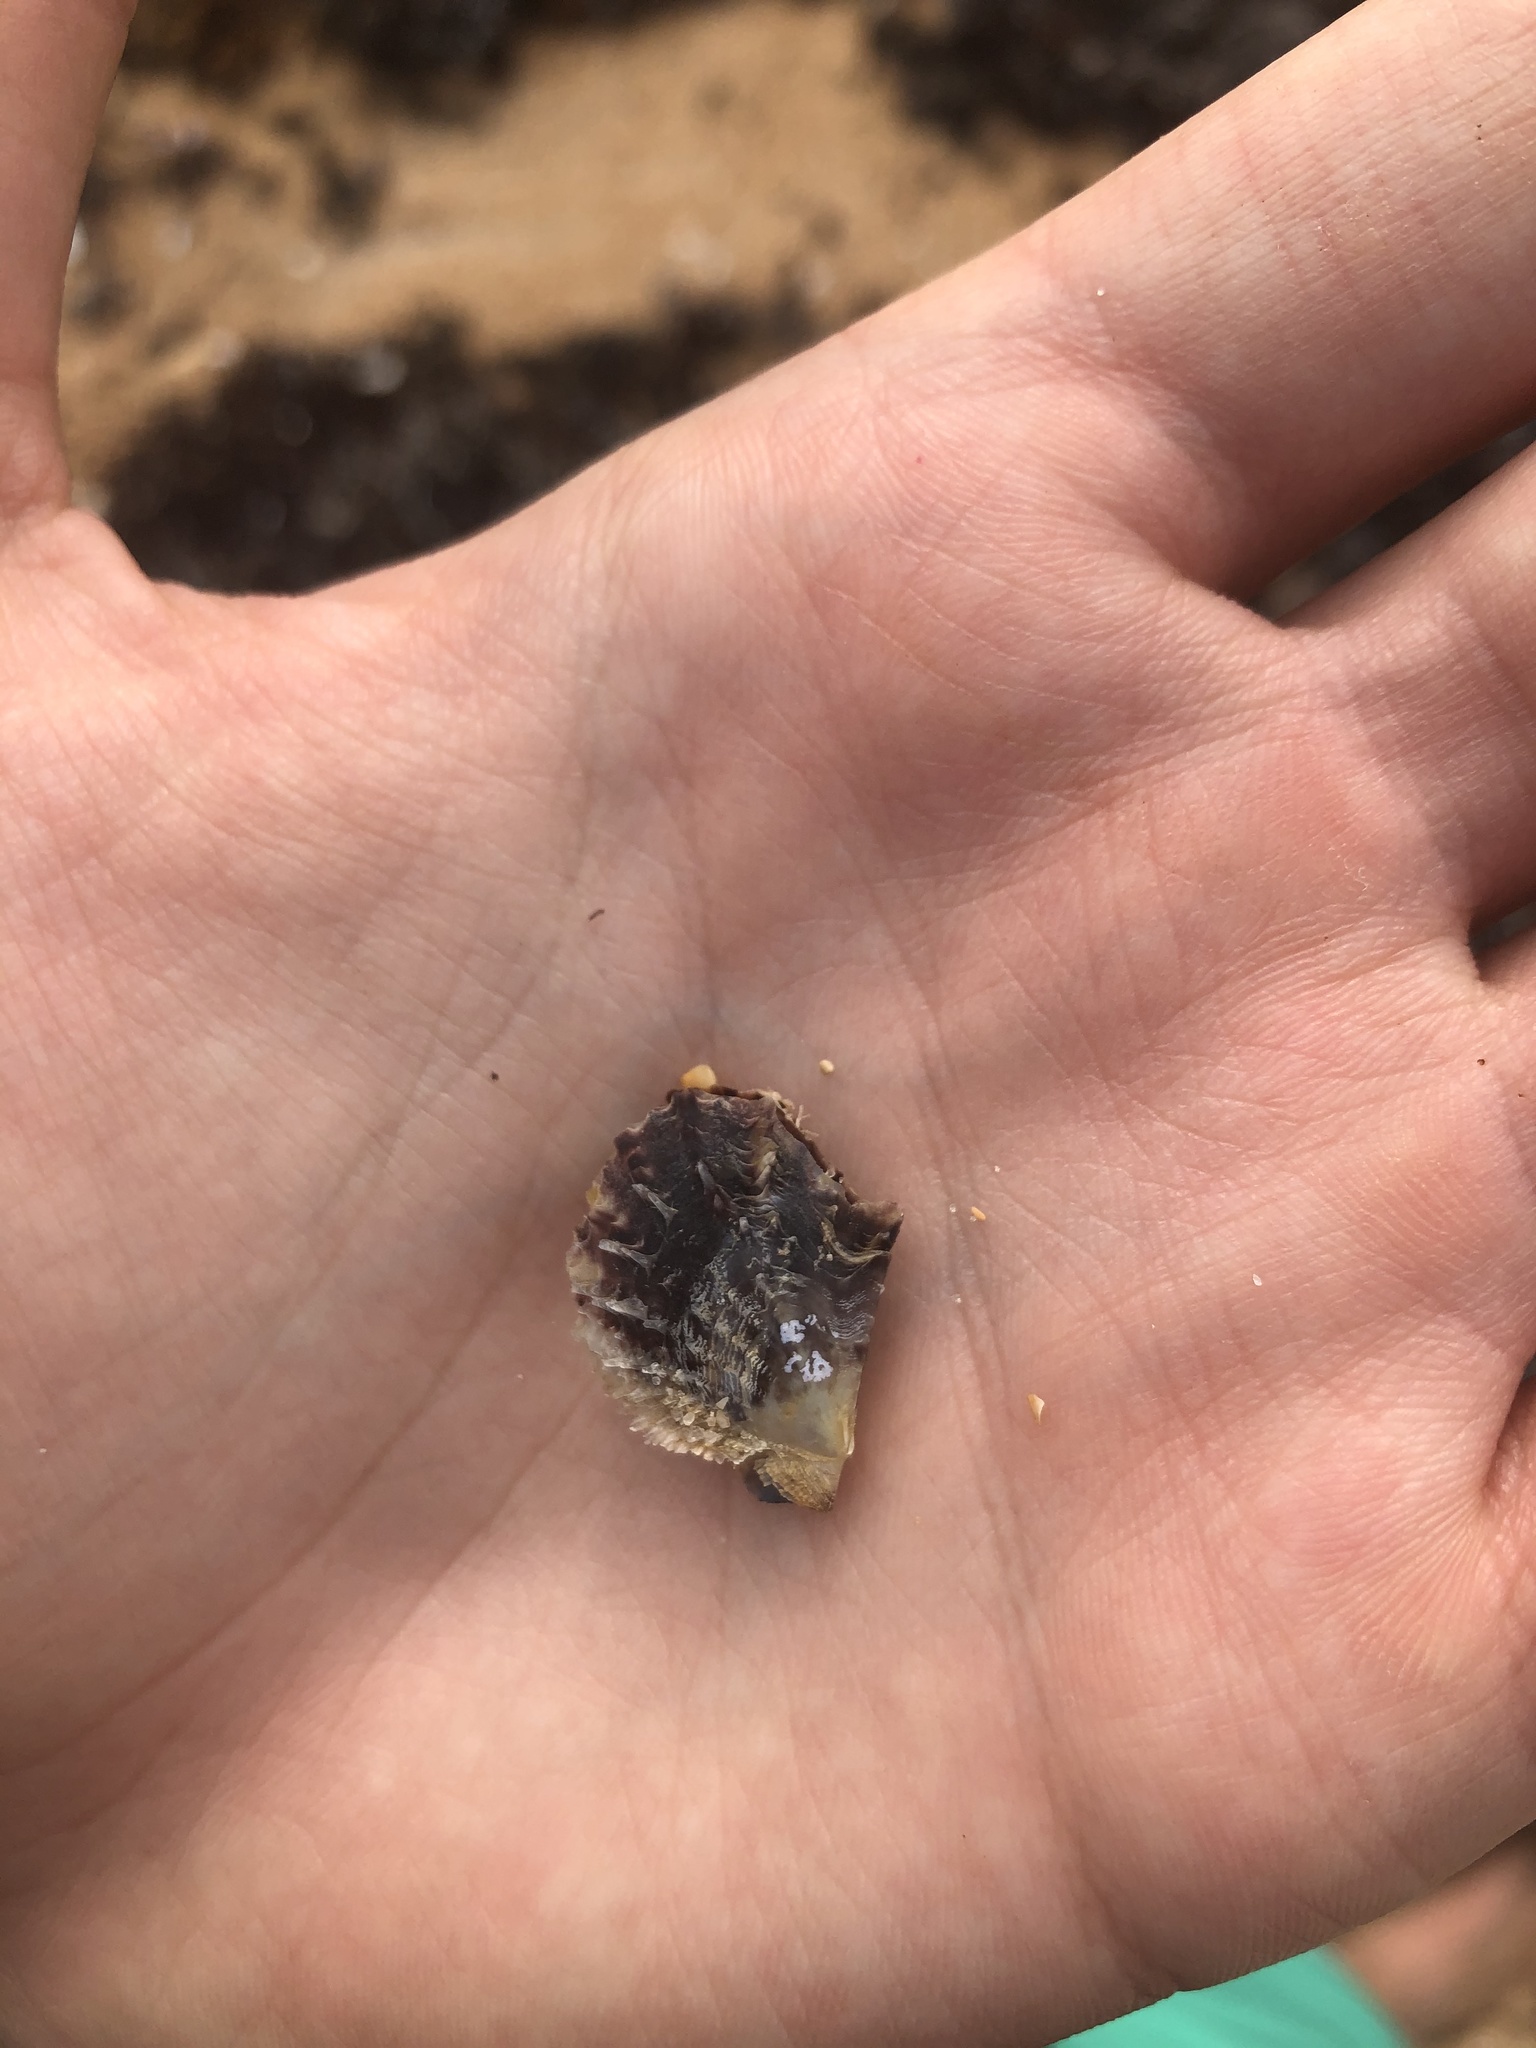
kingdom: Animalia
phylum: Mollusca
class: Bivalvia
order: Ostreida
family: Margaritidae
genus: Pinctada
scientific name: Pinctada imbricata
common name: Atlantic pearl-oyster
